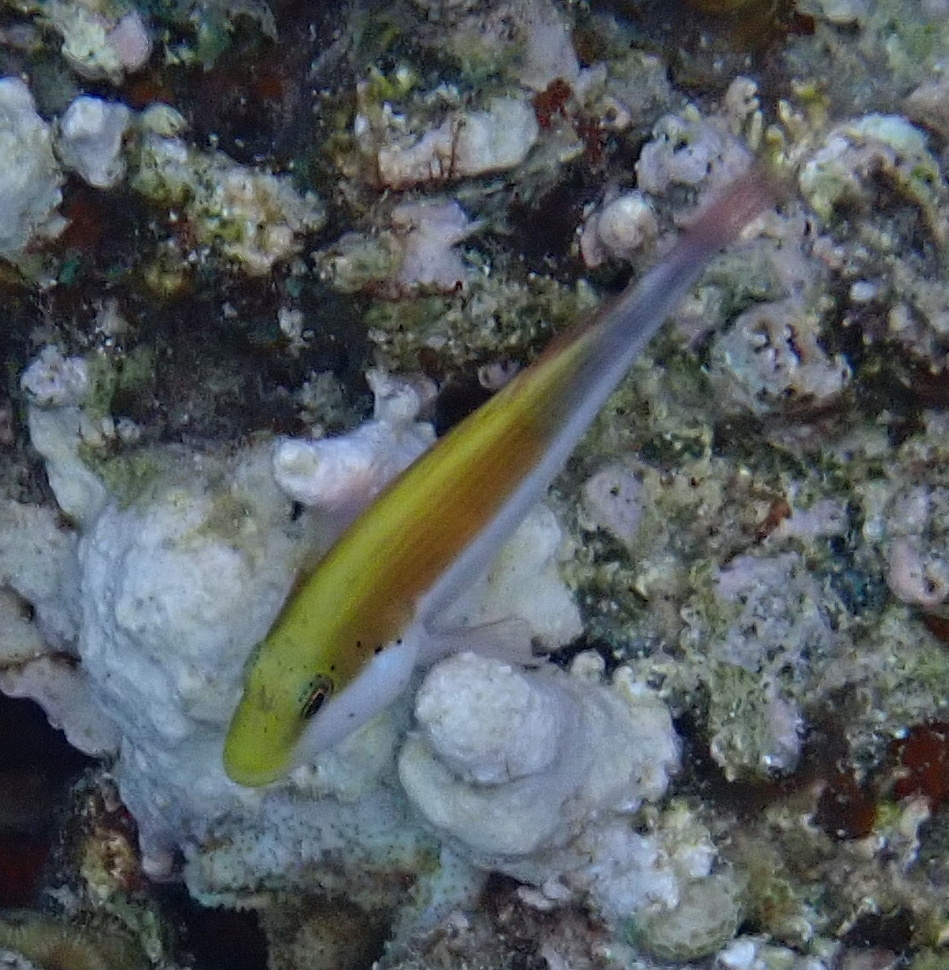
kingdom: Animalia
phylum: Chordata
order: Perciformes
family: Cirrhitidae
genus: Paracirrhites
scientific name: Paracirrhites forsteri
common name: Freckled hawkfish
